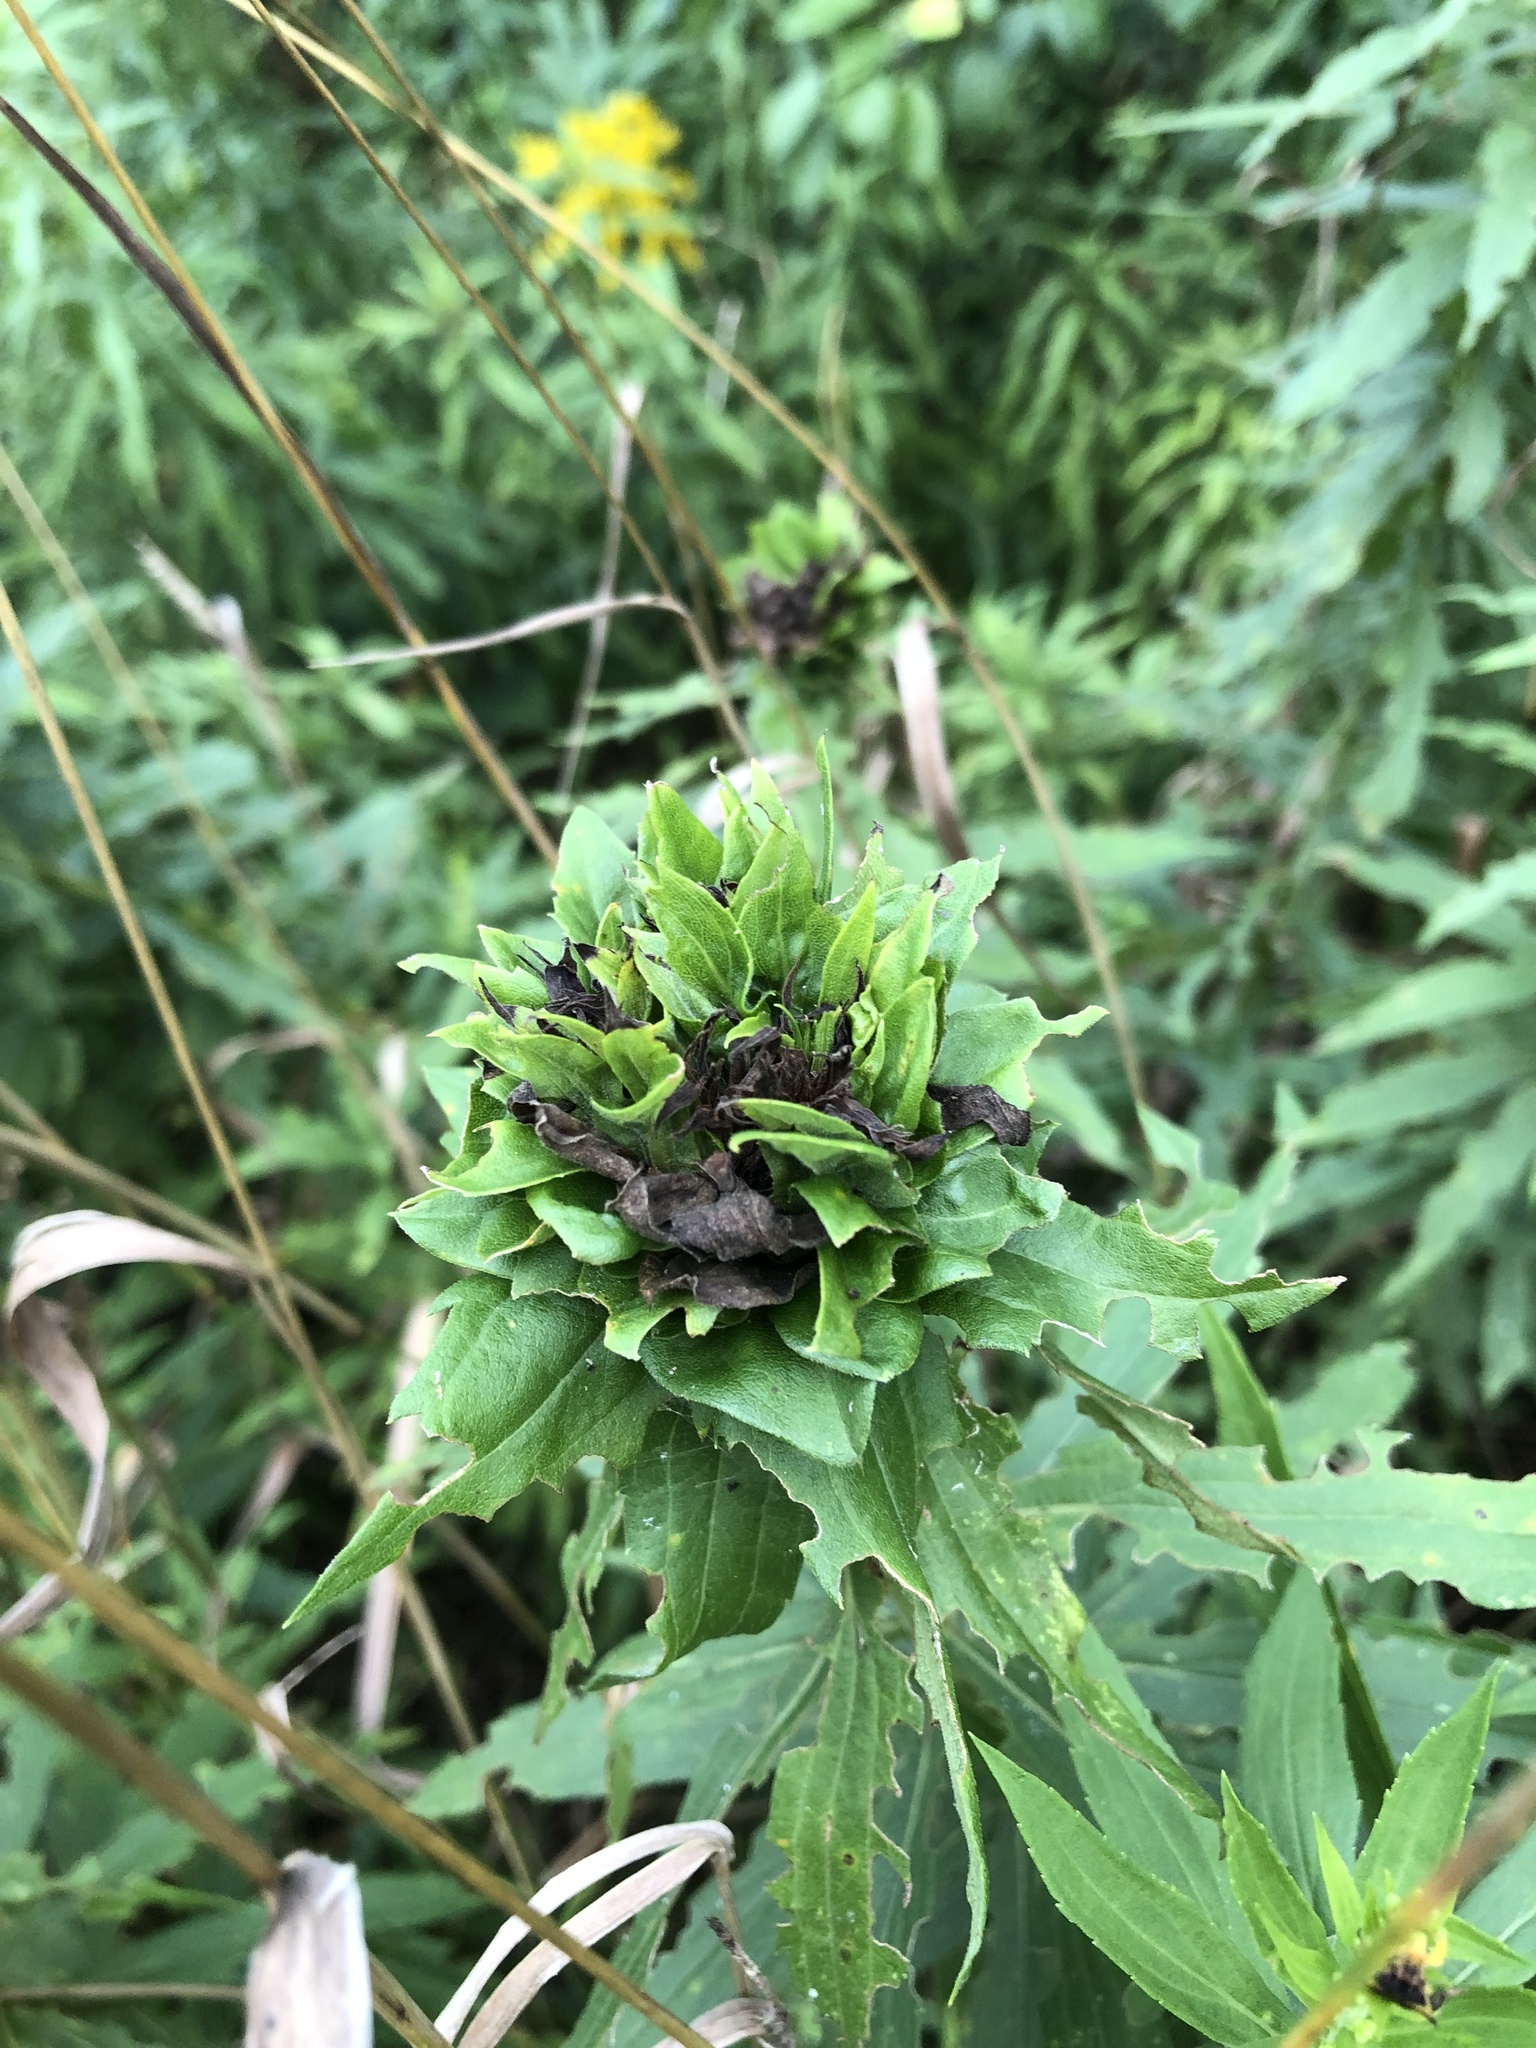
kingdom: Animalia
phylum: Arthropoda
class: Insecta
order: Diptera
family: Cecidomyiidae
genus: Rhopalomyia
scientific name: Rhopalomyia solidaginis
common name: Goldenrod bunch gall midge
